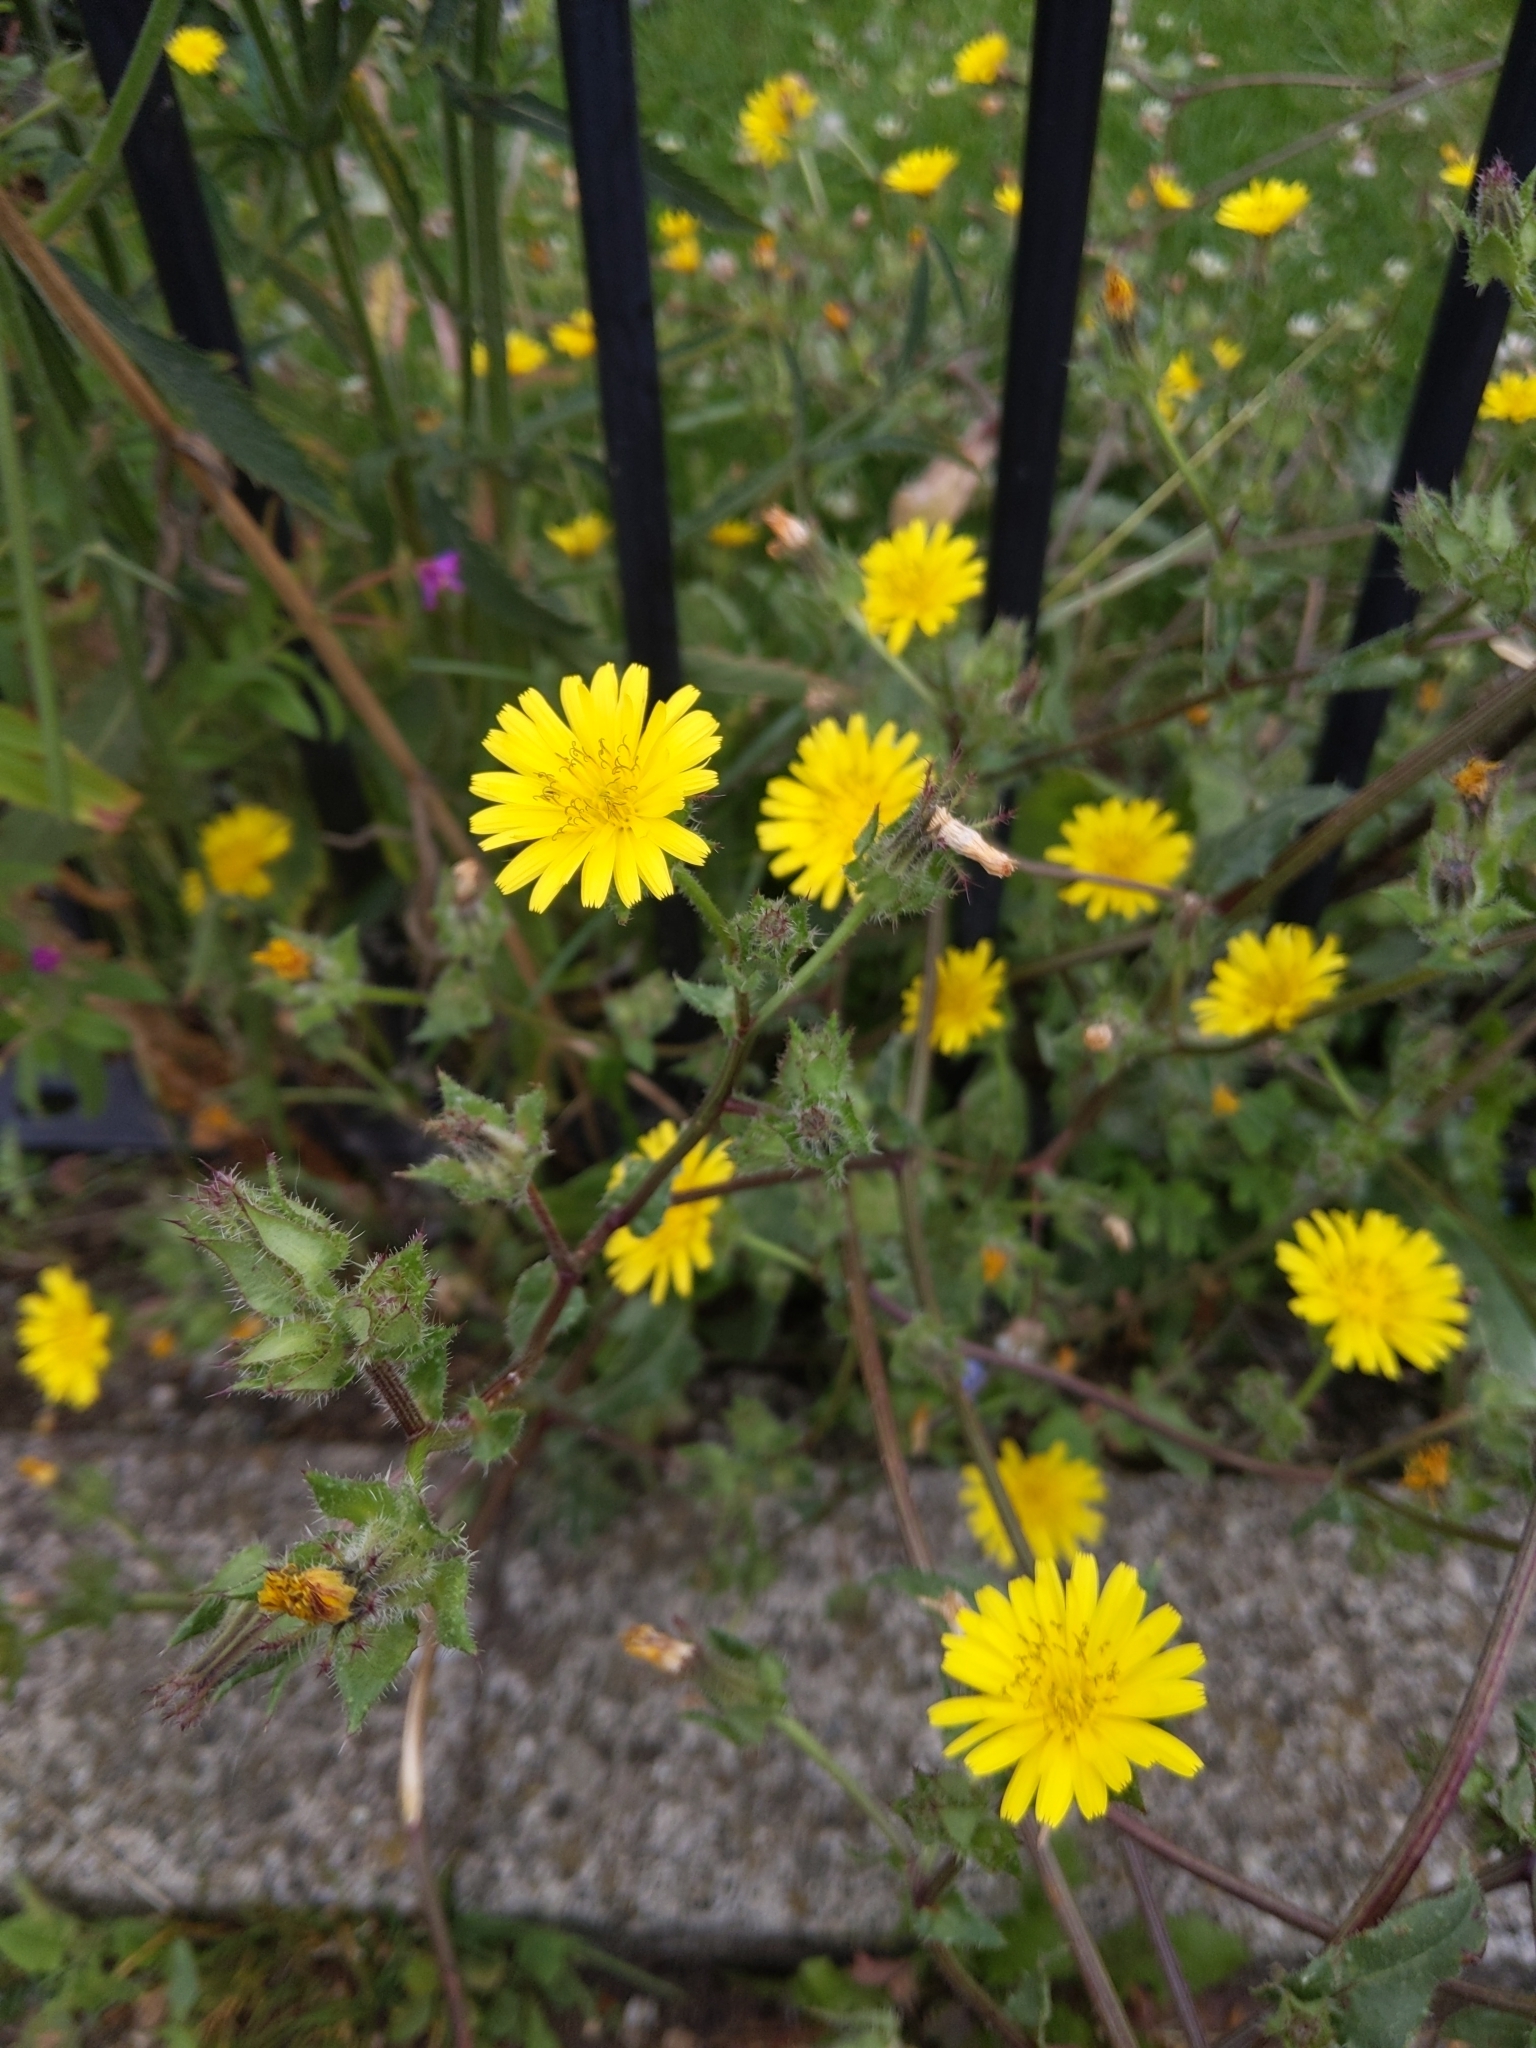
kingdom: Plantae
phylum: Tracheophyta
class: Magnoliopsida
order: Asterales
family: Asteraceae
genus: Helminthotheca
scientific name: Helminthotheca echioides
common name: Ox-tongue
